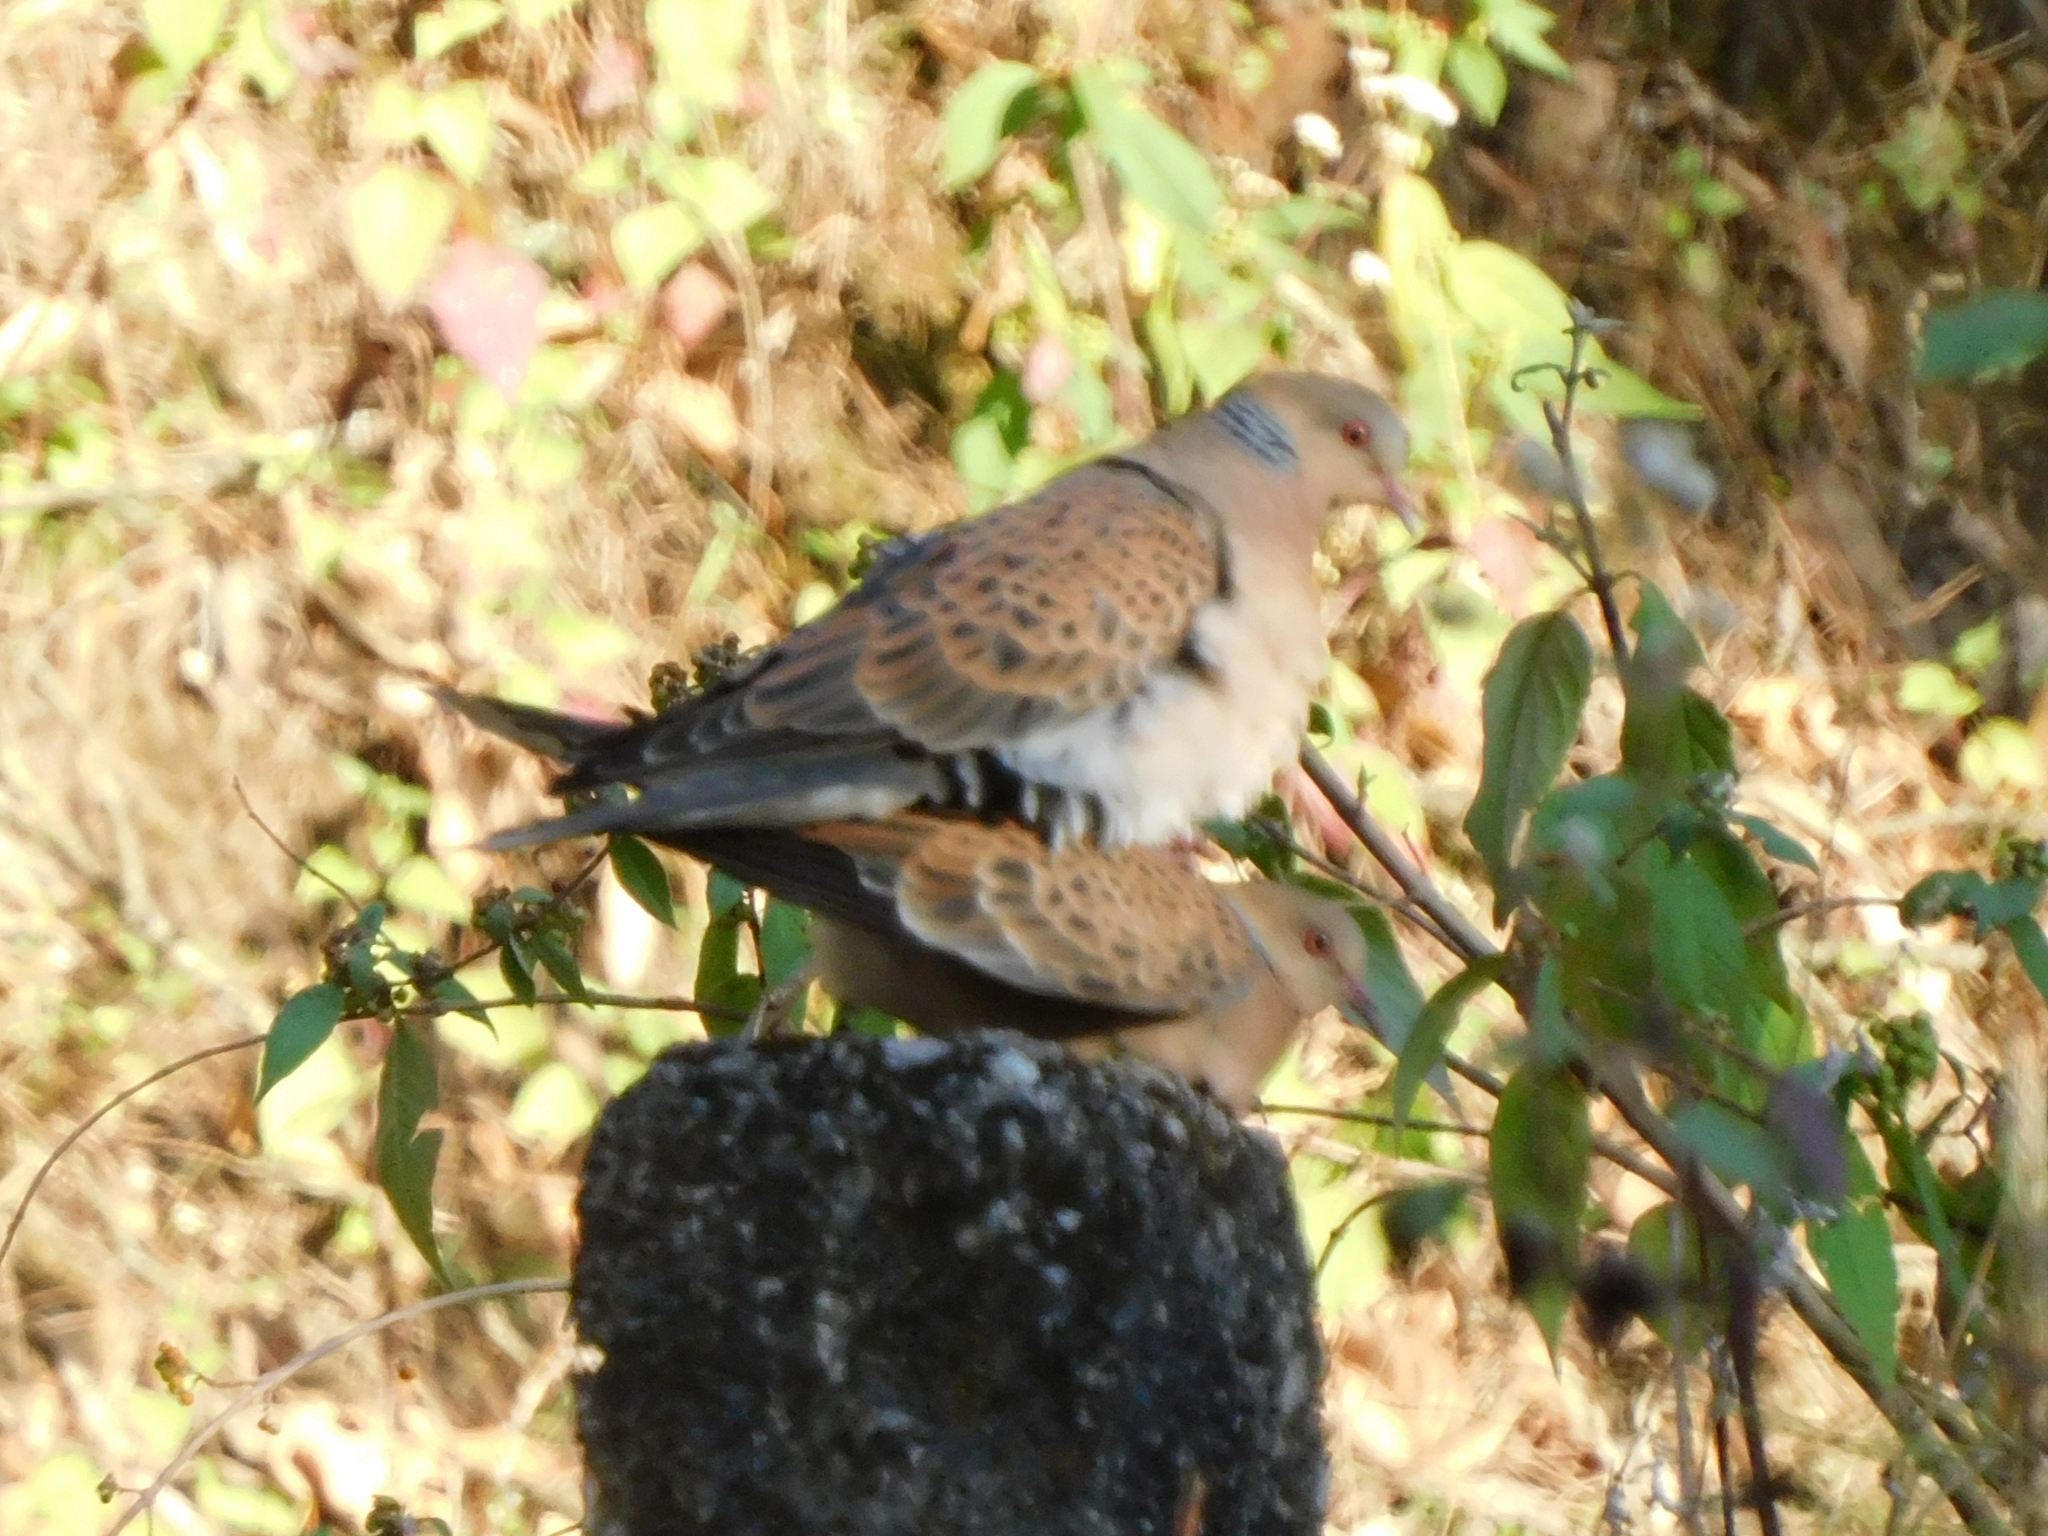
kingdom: Animalia
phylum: Chordata
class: Aves
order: Columbiformes
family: Columbidae
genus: Streptopelia
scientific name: Streptopelia orientalis
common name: Oriental turtle dove
